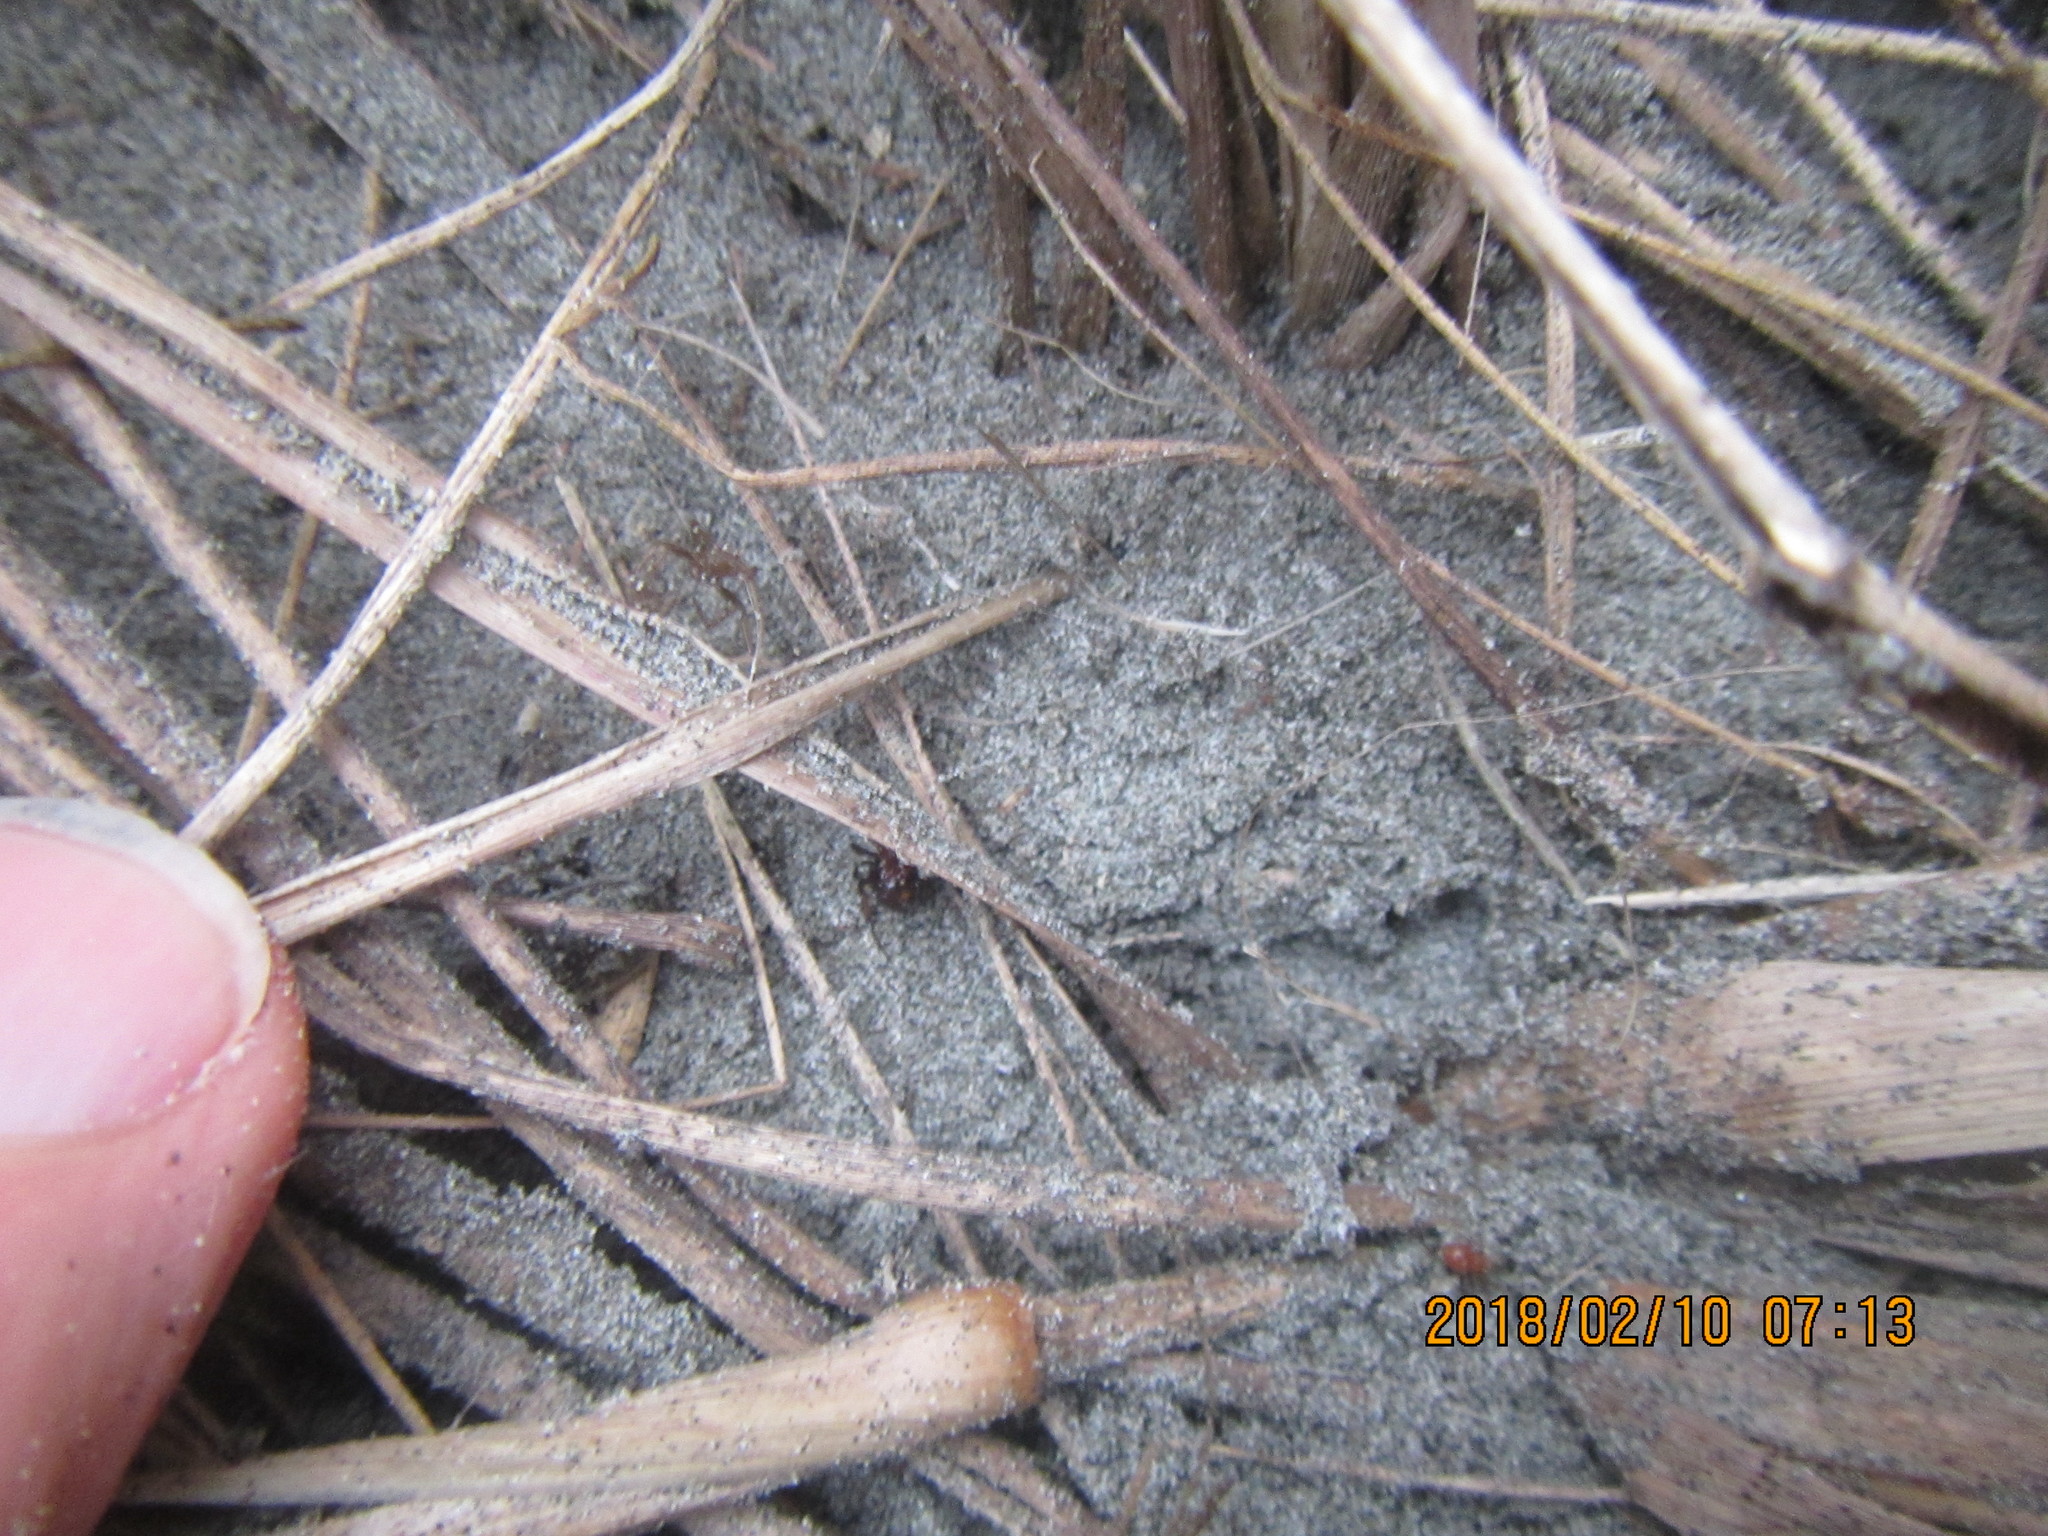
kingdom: Animalia
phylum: Arthropoda
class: Arachnida
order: Araneae
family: Theridiidae
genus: Steatoda
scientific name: Steatoda capensis
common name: Cobweb weaver
